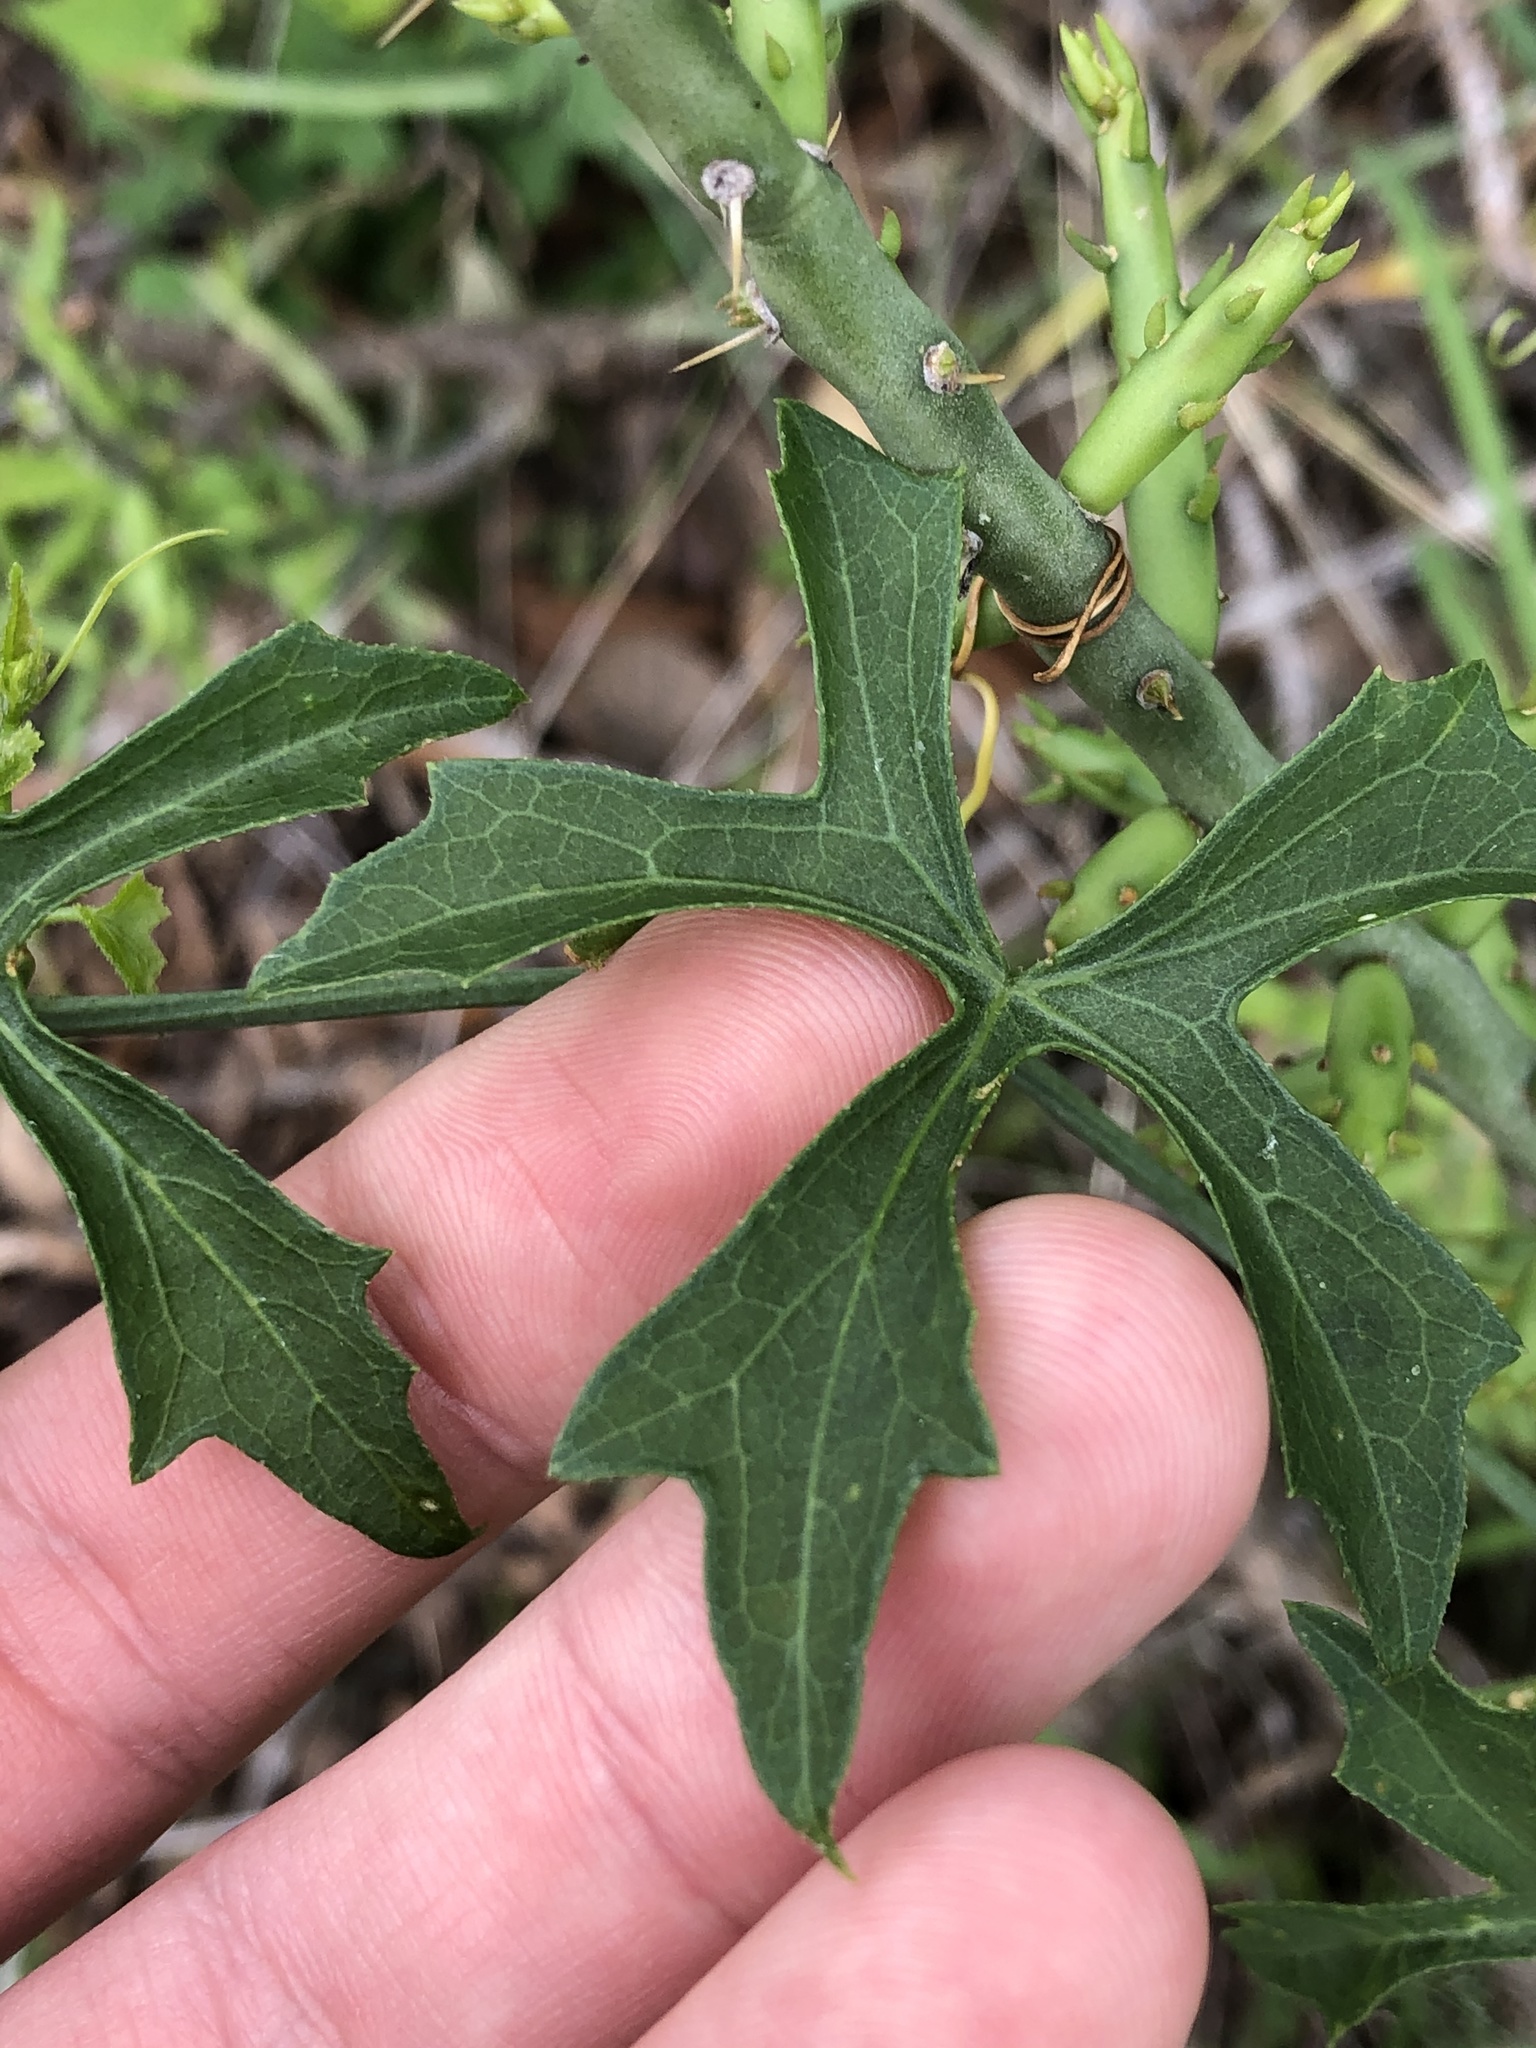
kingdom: Plantae
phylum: Tracheophyta
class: Magnoliopsida
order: Cucurbitales
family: Cucurbitaceae
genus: Ibervillea
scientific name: Ibervillea lindheimeri
